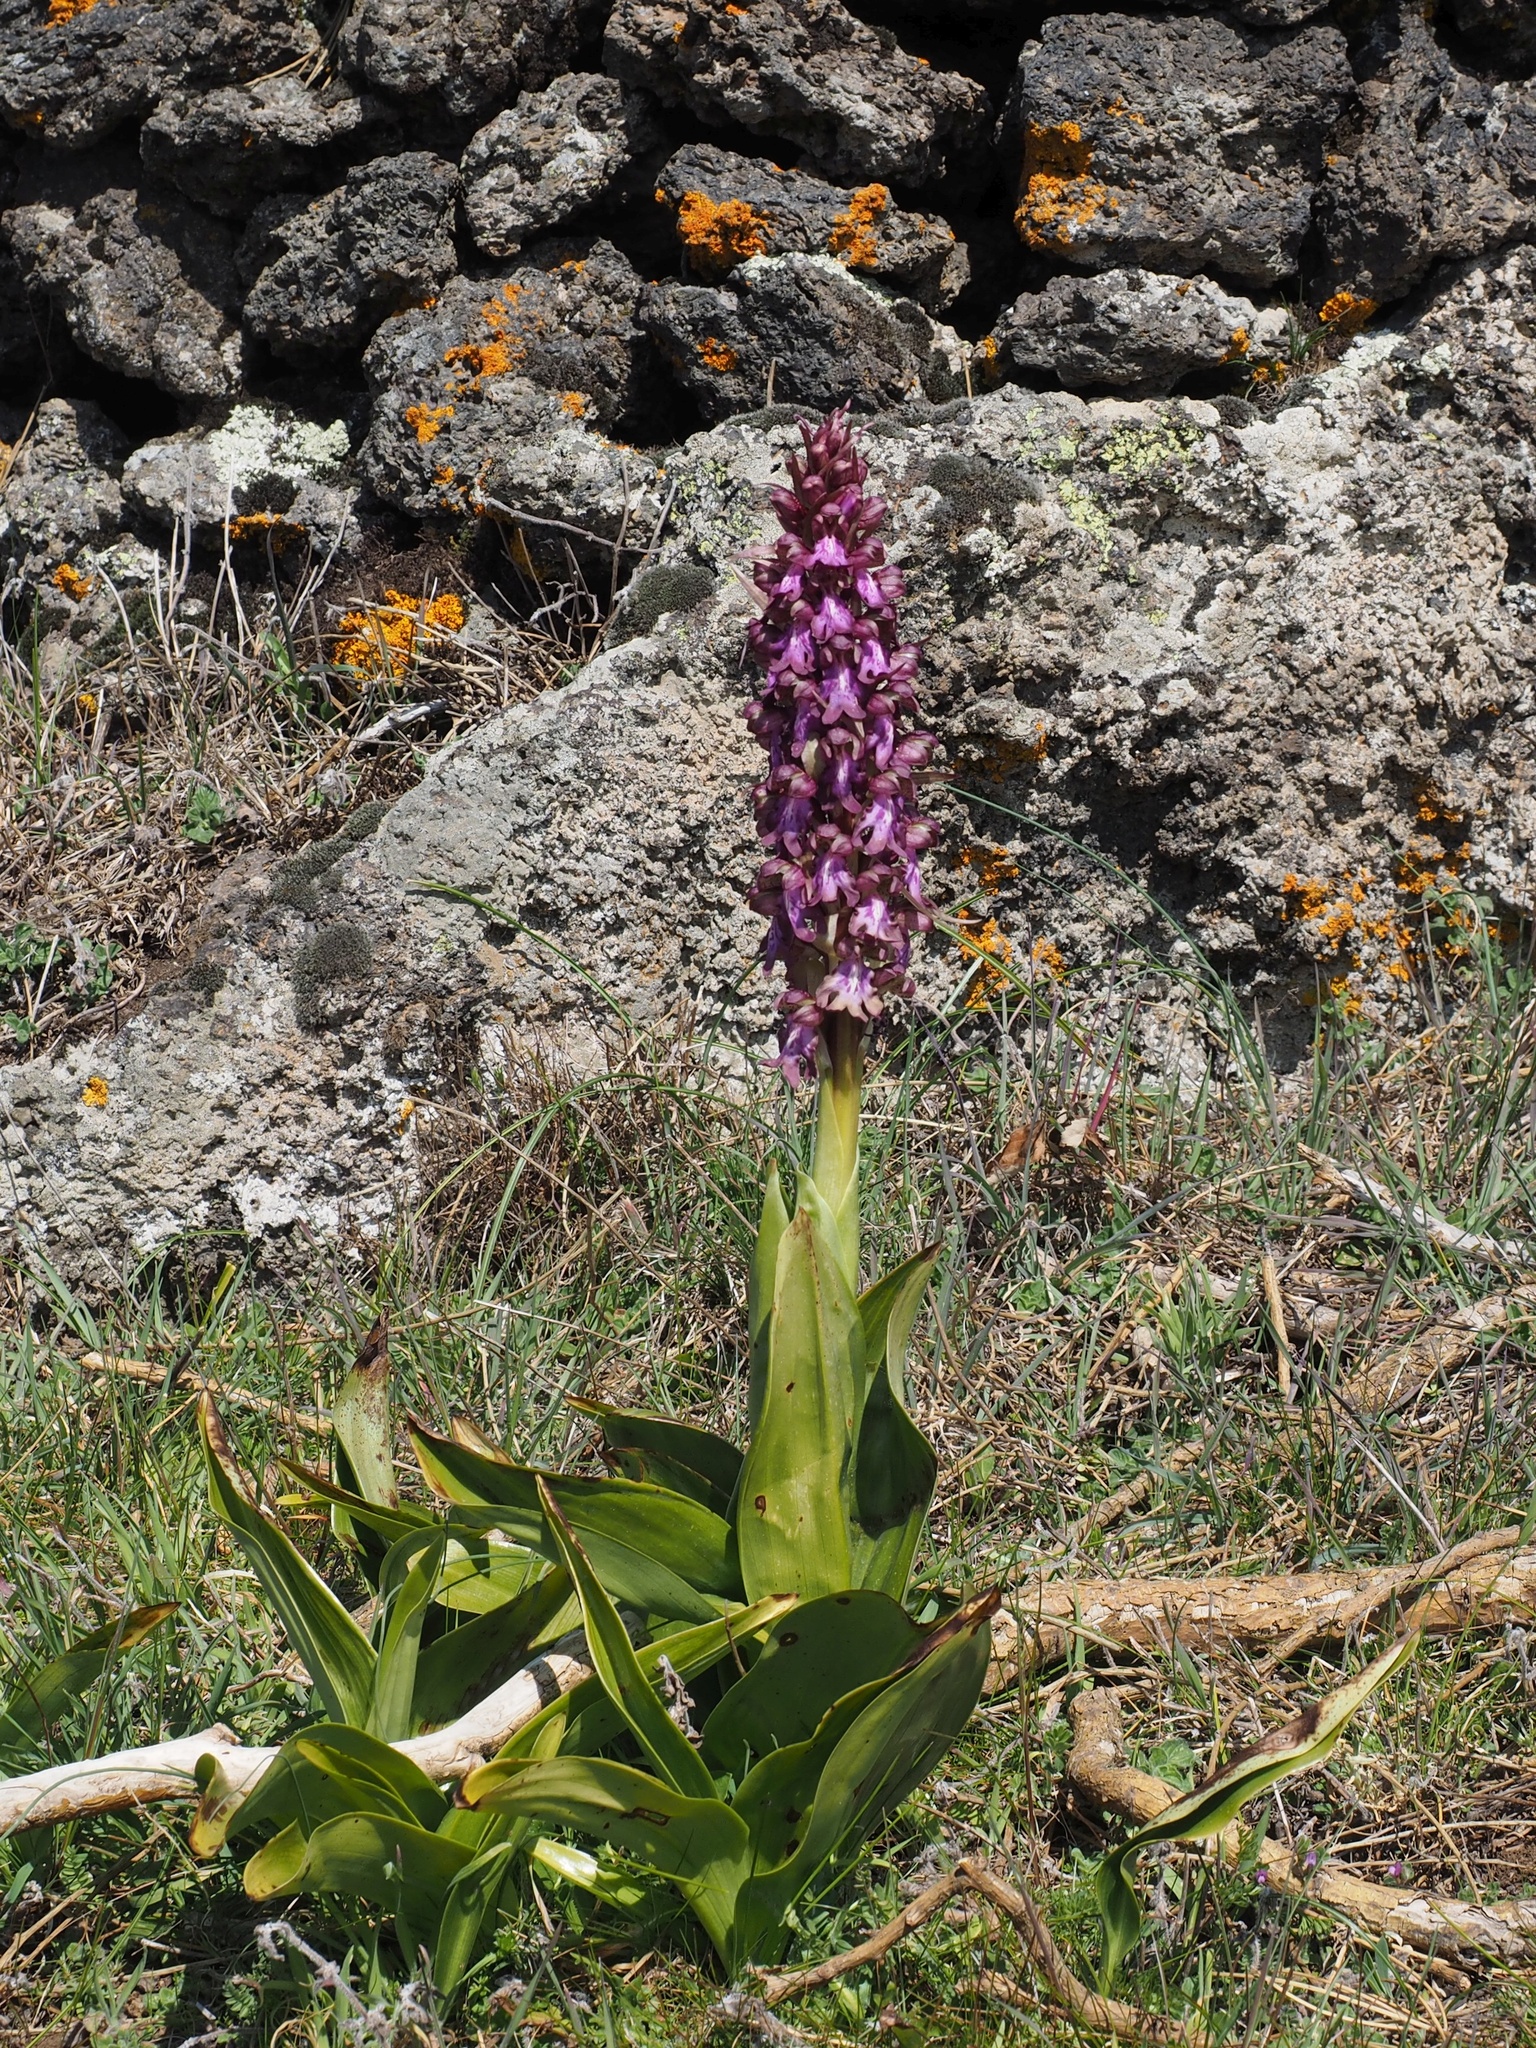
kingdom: Plantae
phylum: Tracheophyta
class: Liliopsida
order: Asparagales
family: Orchidaceae
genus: Himantoglossum
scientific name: Himantoglossum robertianum
